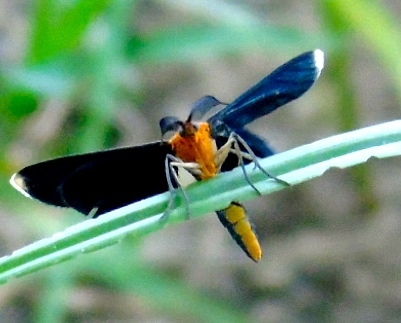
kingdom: Animalia
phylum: Arthropoda
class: Insecta
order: Lepidoptera
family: Geometridae
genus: Melanchroia
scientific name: Melanchroia chephise
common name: White-tipped black
